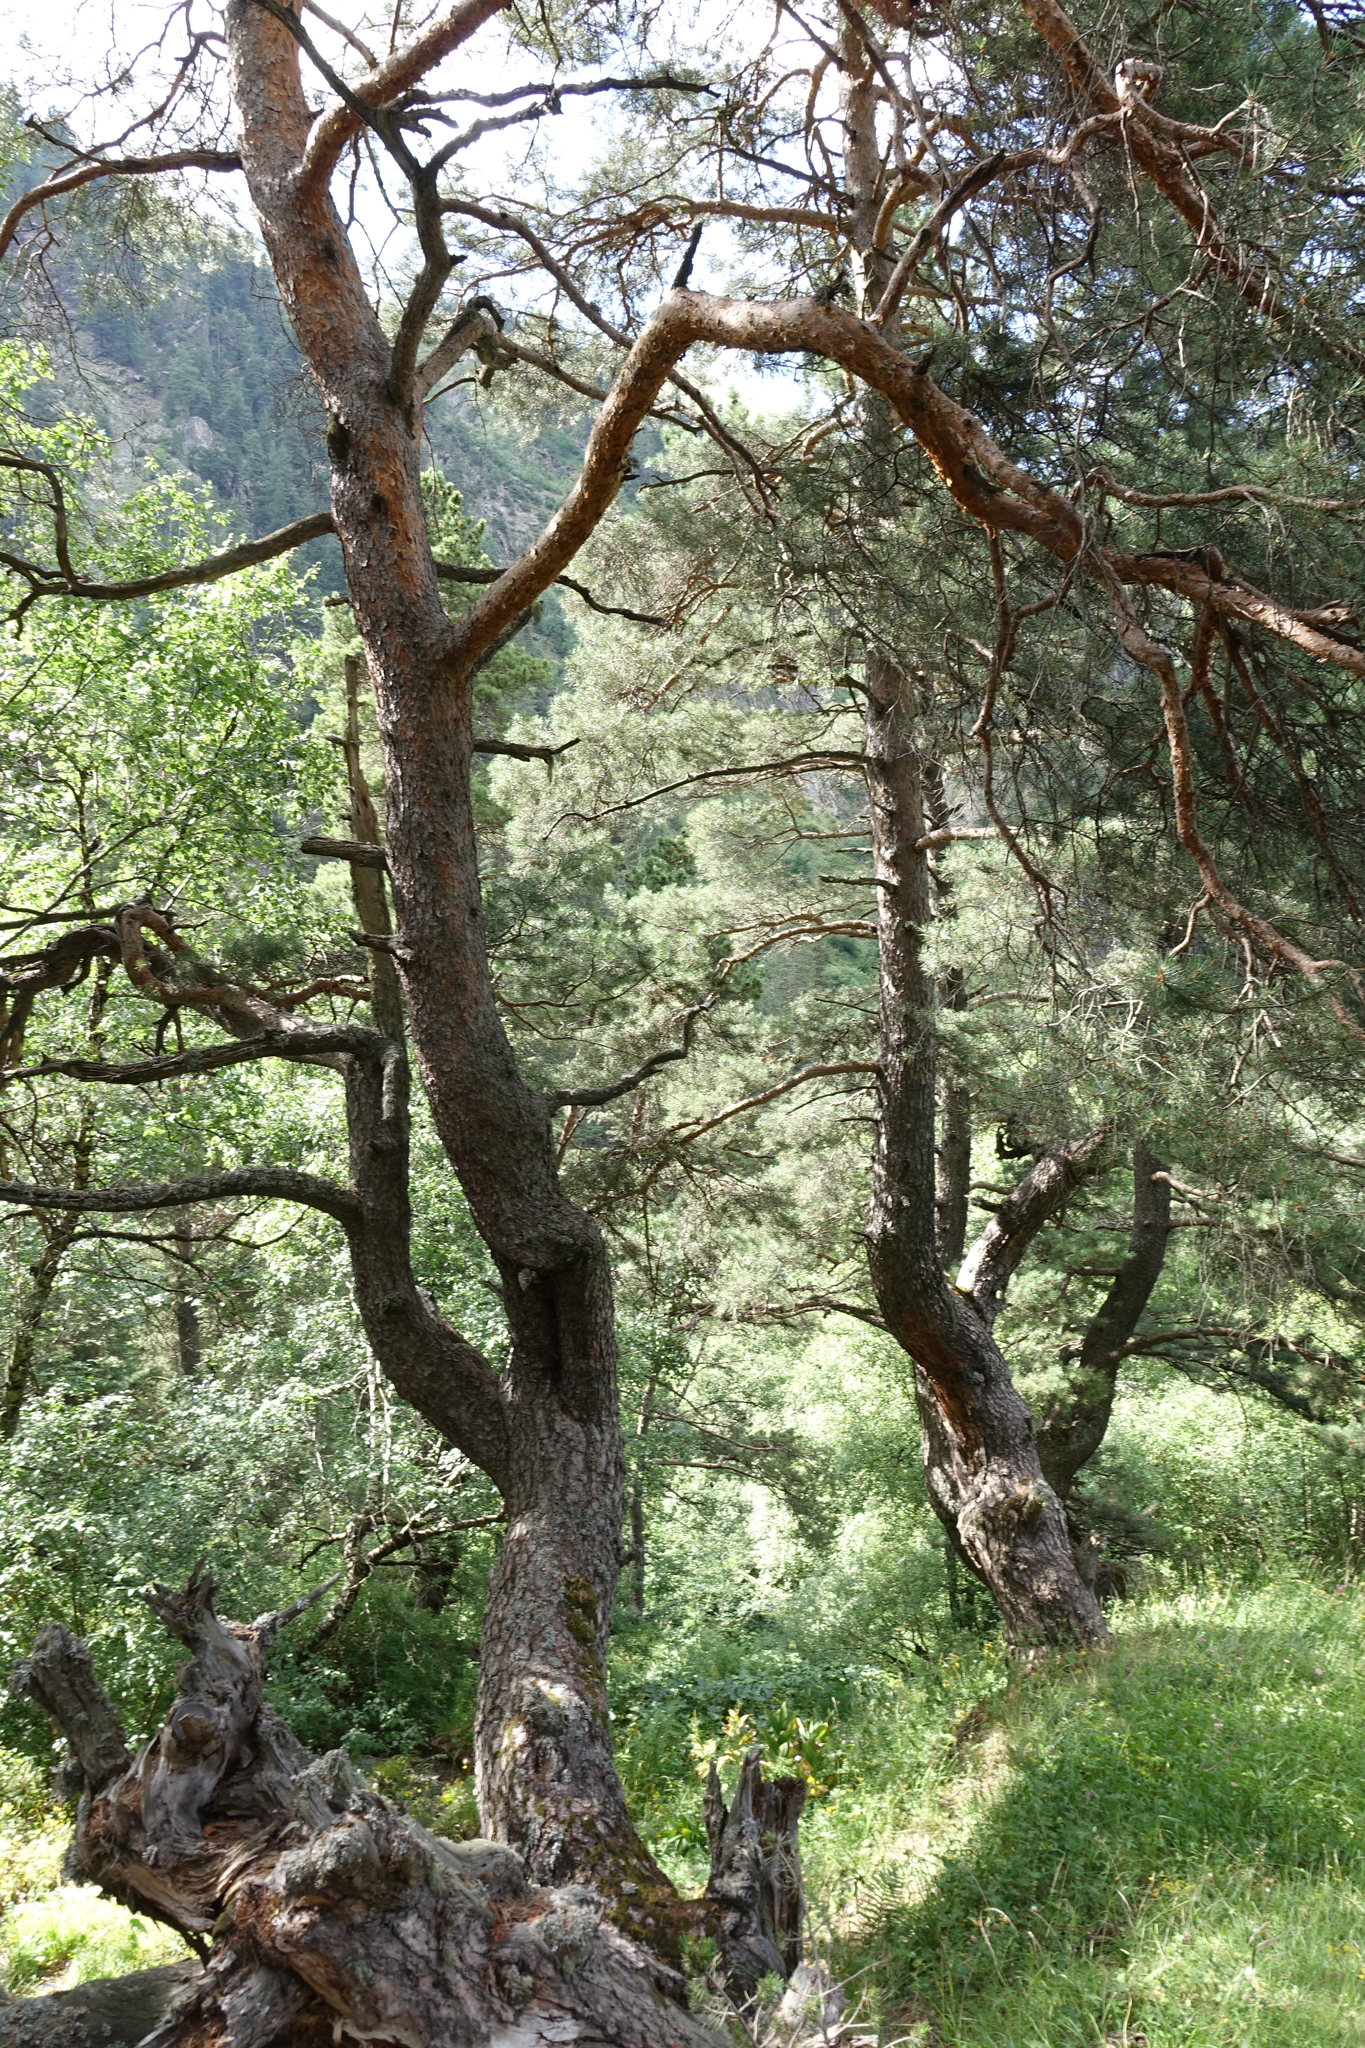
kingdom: Plantae
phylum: Tracheophyta
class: Pinopsida
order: Pinales
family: Pinaceae
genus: Pinus
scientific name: Pinus sylvestris
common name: Scots pine
